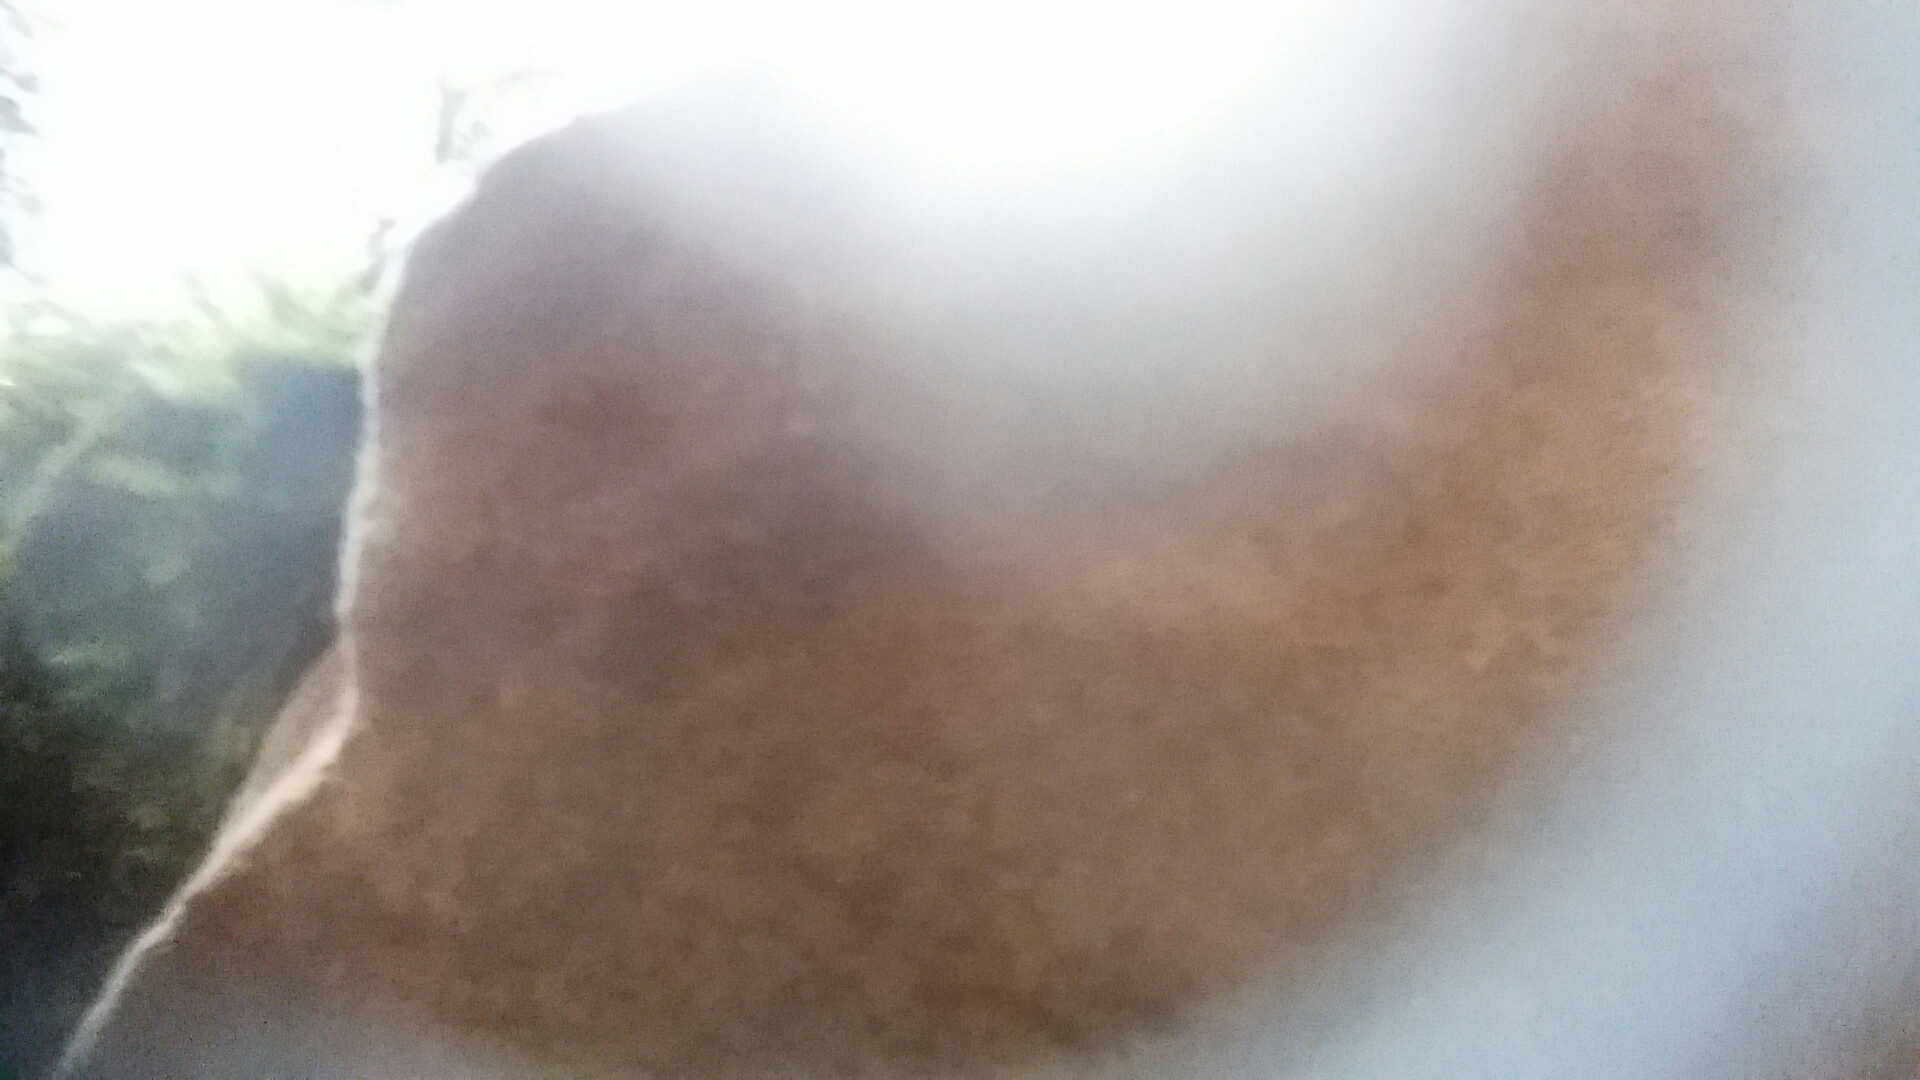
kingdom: Fungi
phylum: Basidiomycota
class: Agaricomycetes
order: Hymenochaetales
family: Hymenochaetaceae
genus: Phellinus
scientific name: Phellinus gilvus
